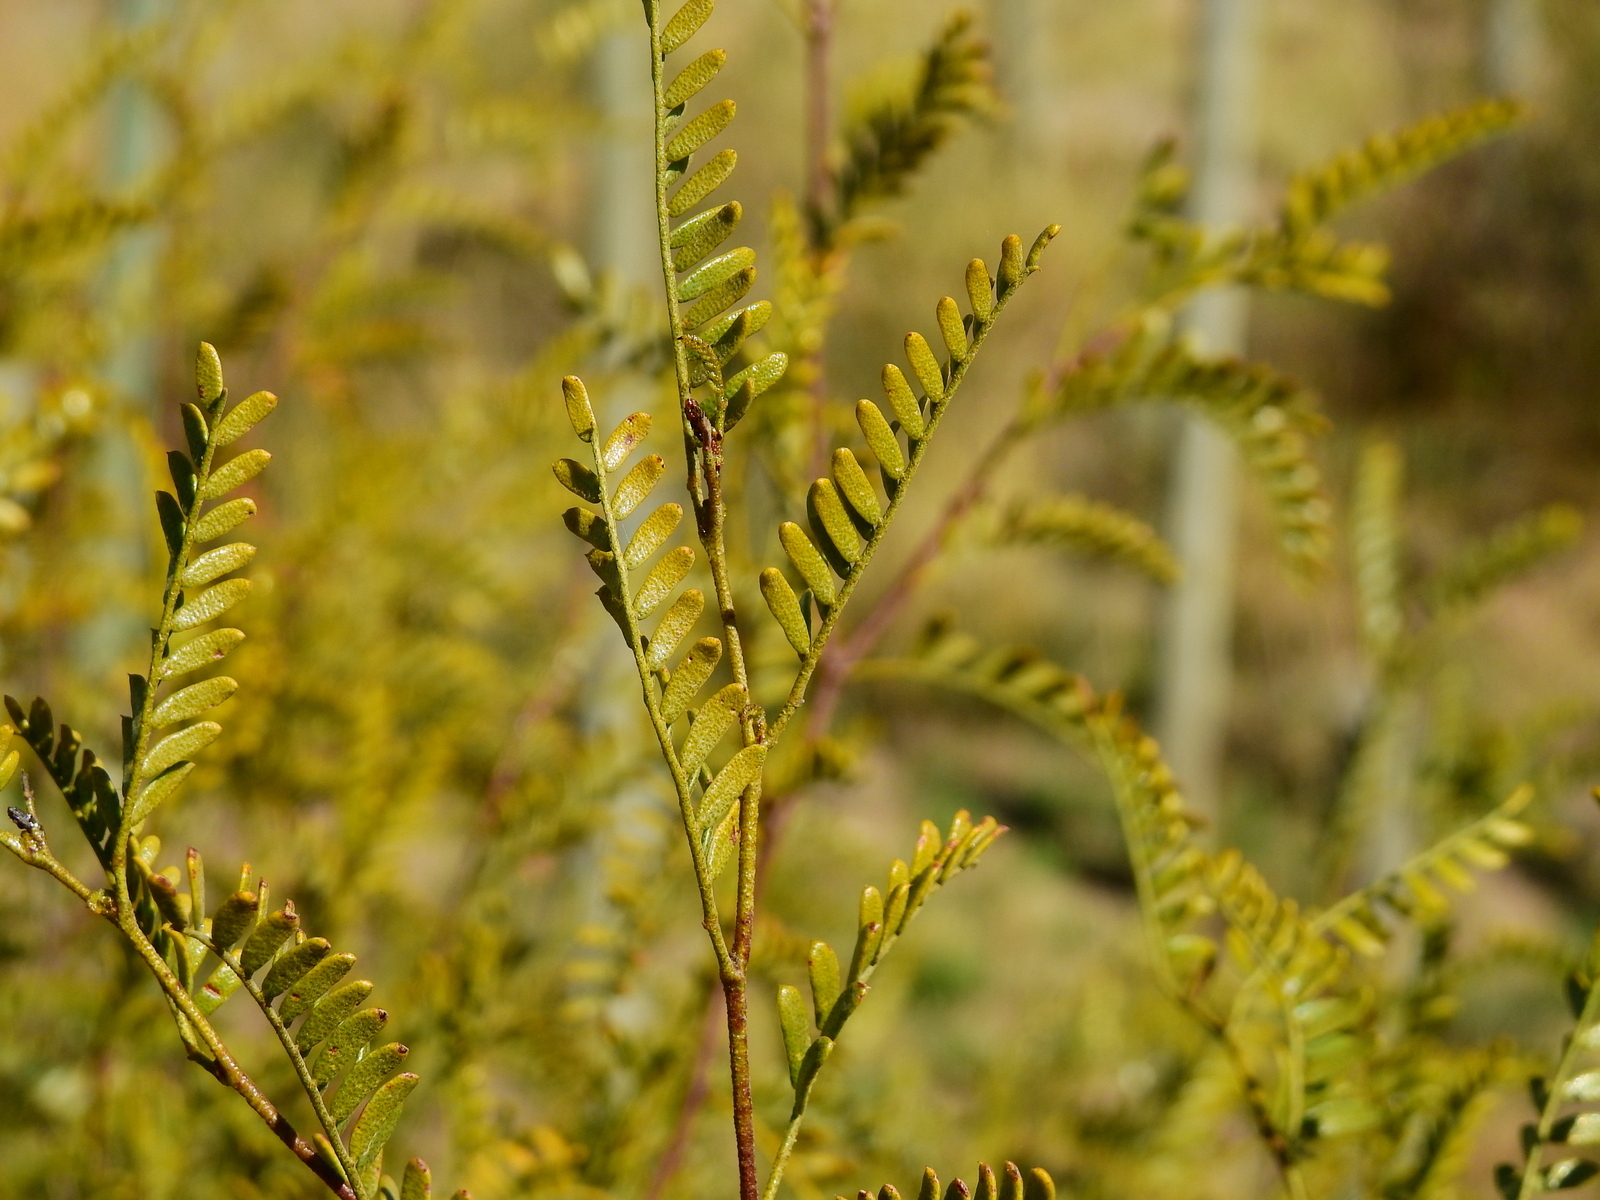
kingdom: Plantae
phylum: Tracheophyta
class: Magnoliopsida
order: Fabales
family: Fabaceae
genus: Zuccagnia
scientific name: Zuccagnia punctata
